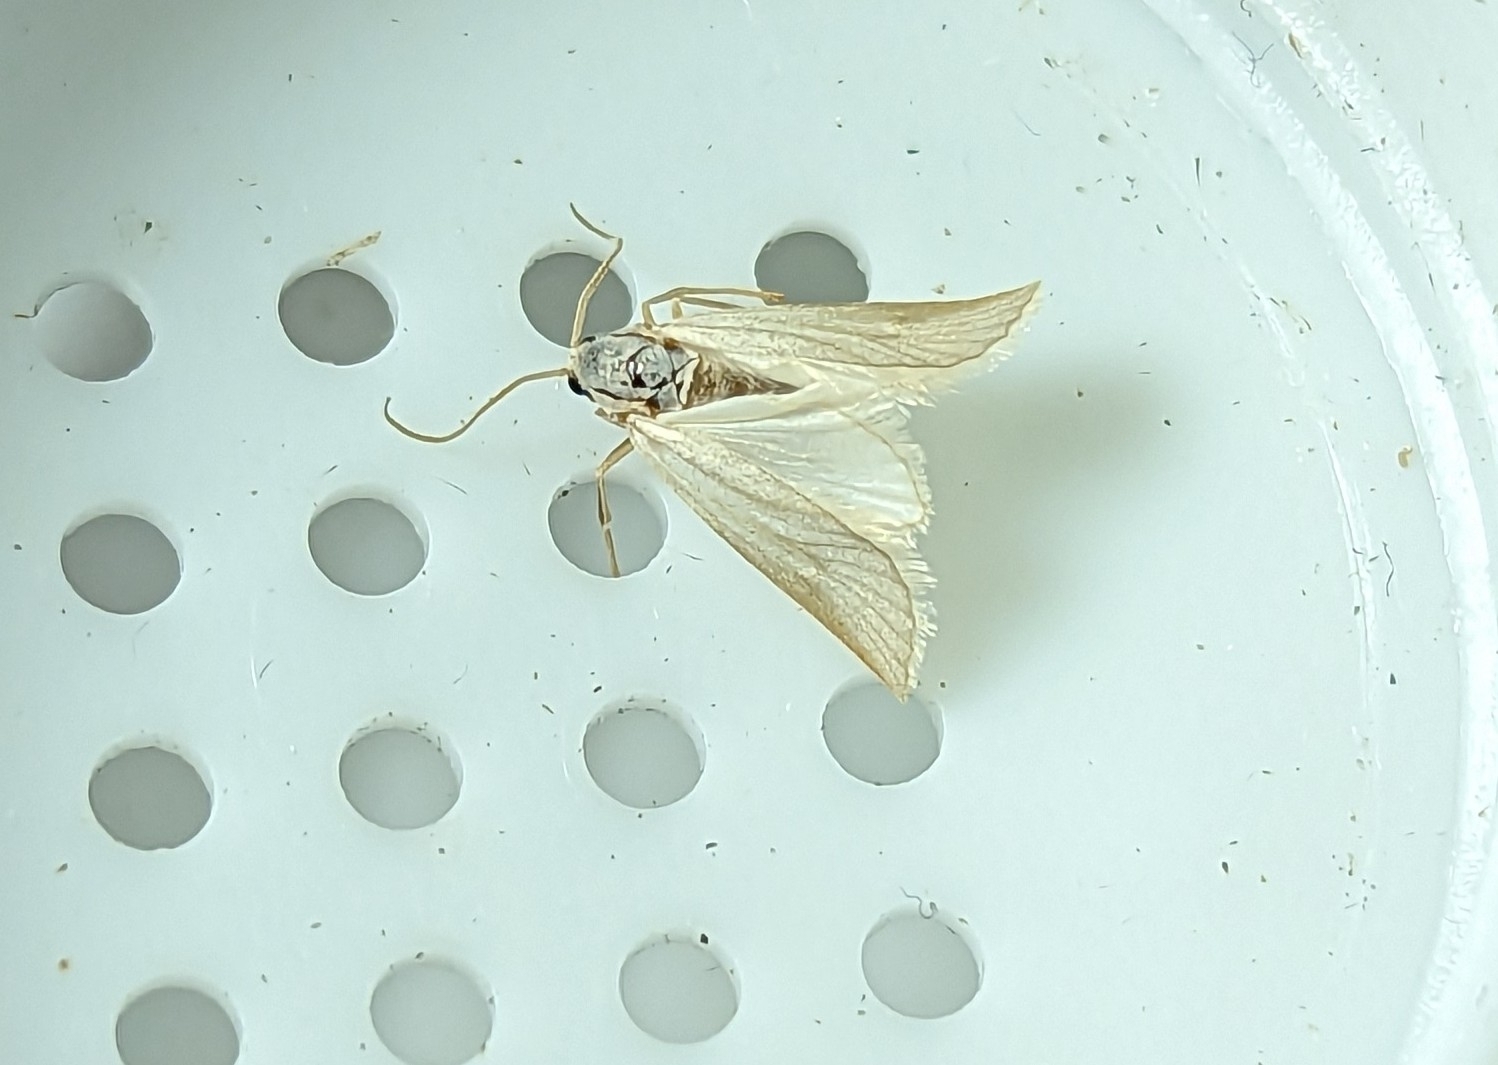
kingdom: Animalia
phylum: Arthropoda
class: Insecta
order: Lepidoptera
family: Crambidae
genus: Acentria
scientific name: Acentria ephemerella
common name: European water moth
